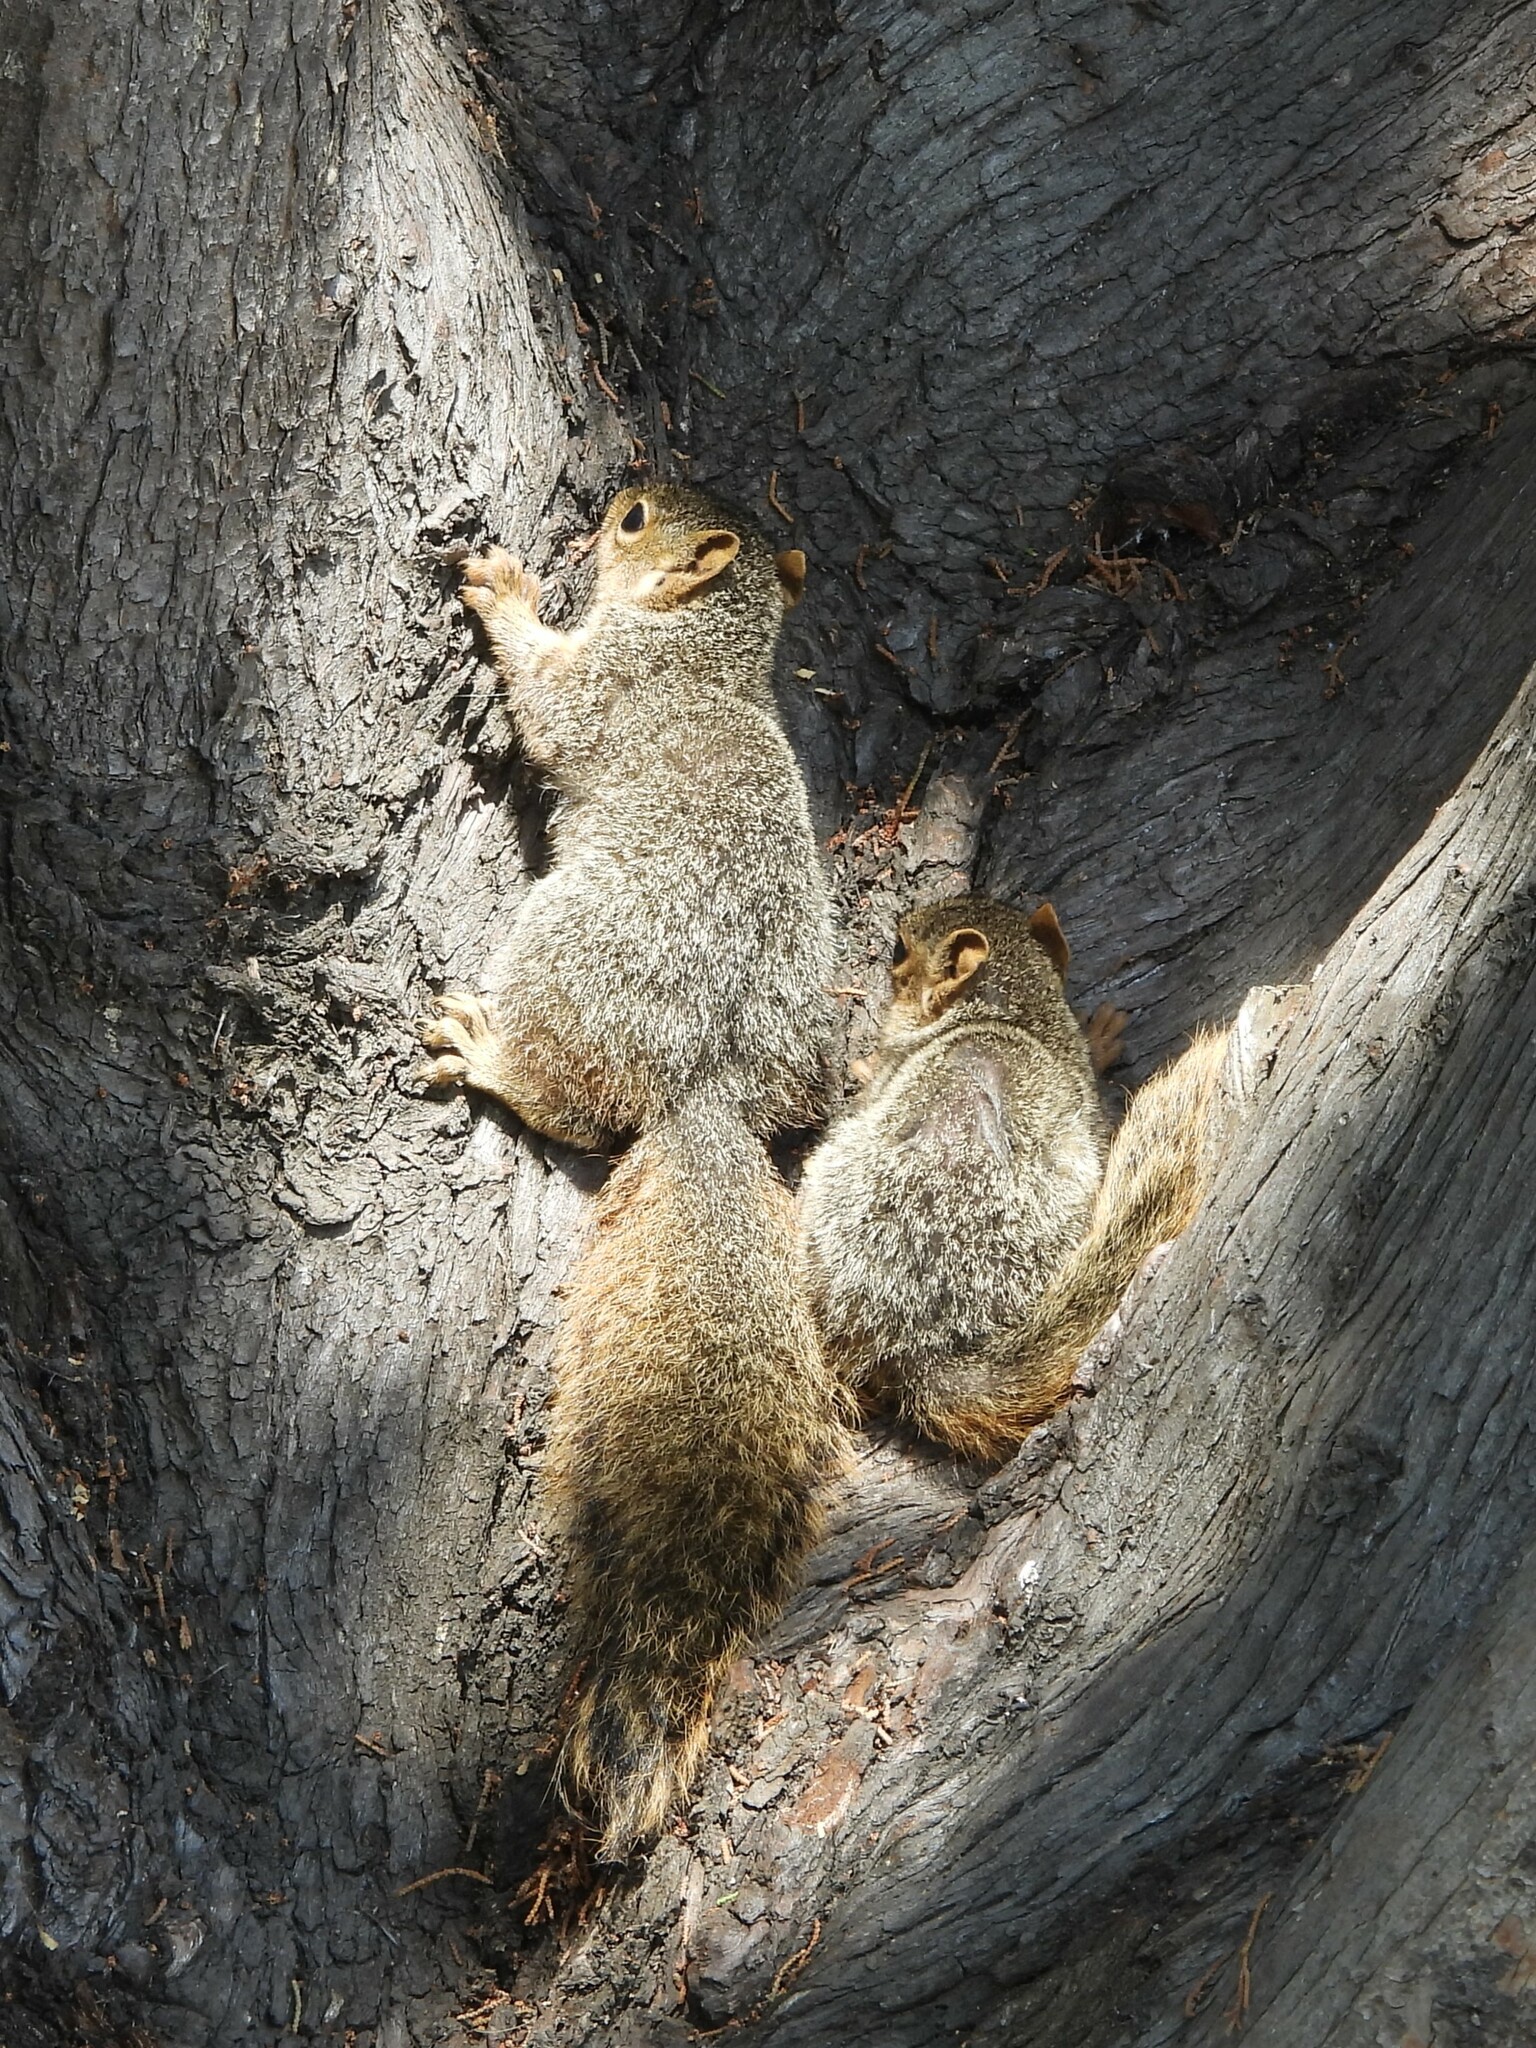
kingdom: Animalia
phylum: Chordata
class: Mammalia
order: Rodentia
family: Sciuridae
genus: Sciurus
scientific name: Sciurus niger
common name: Fox squirrel
